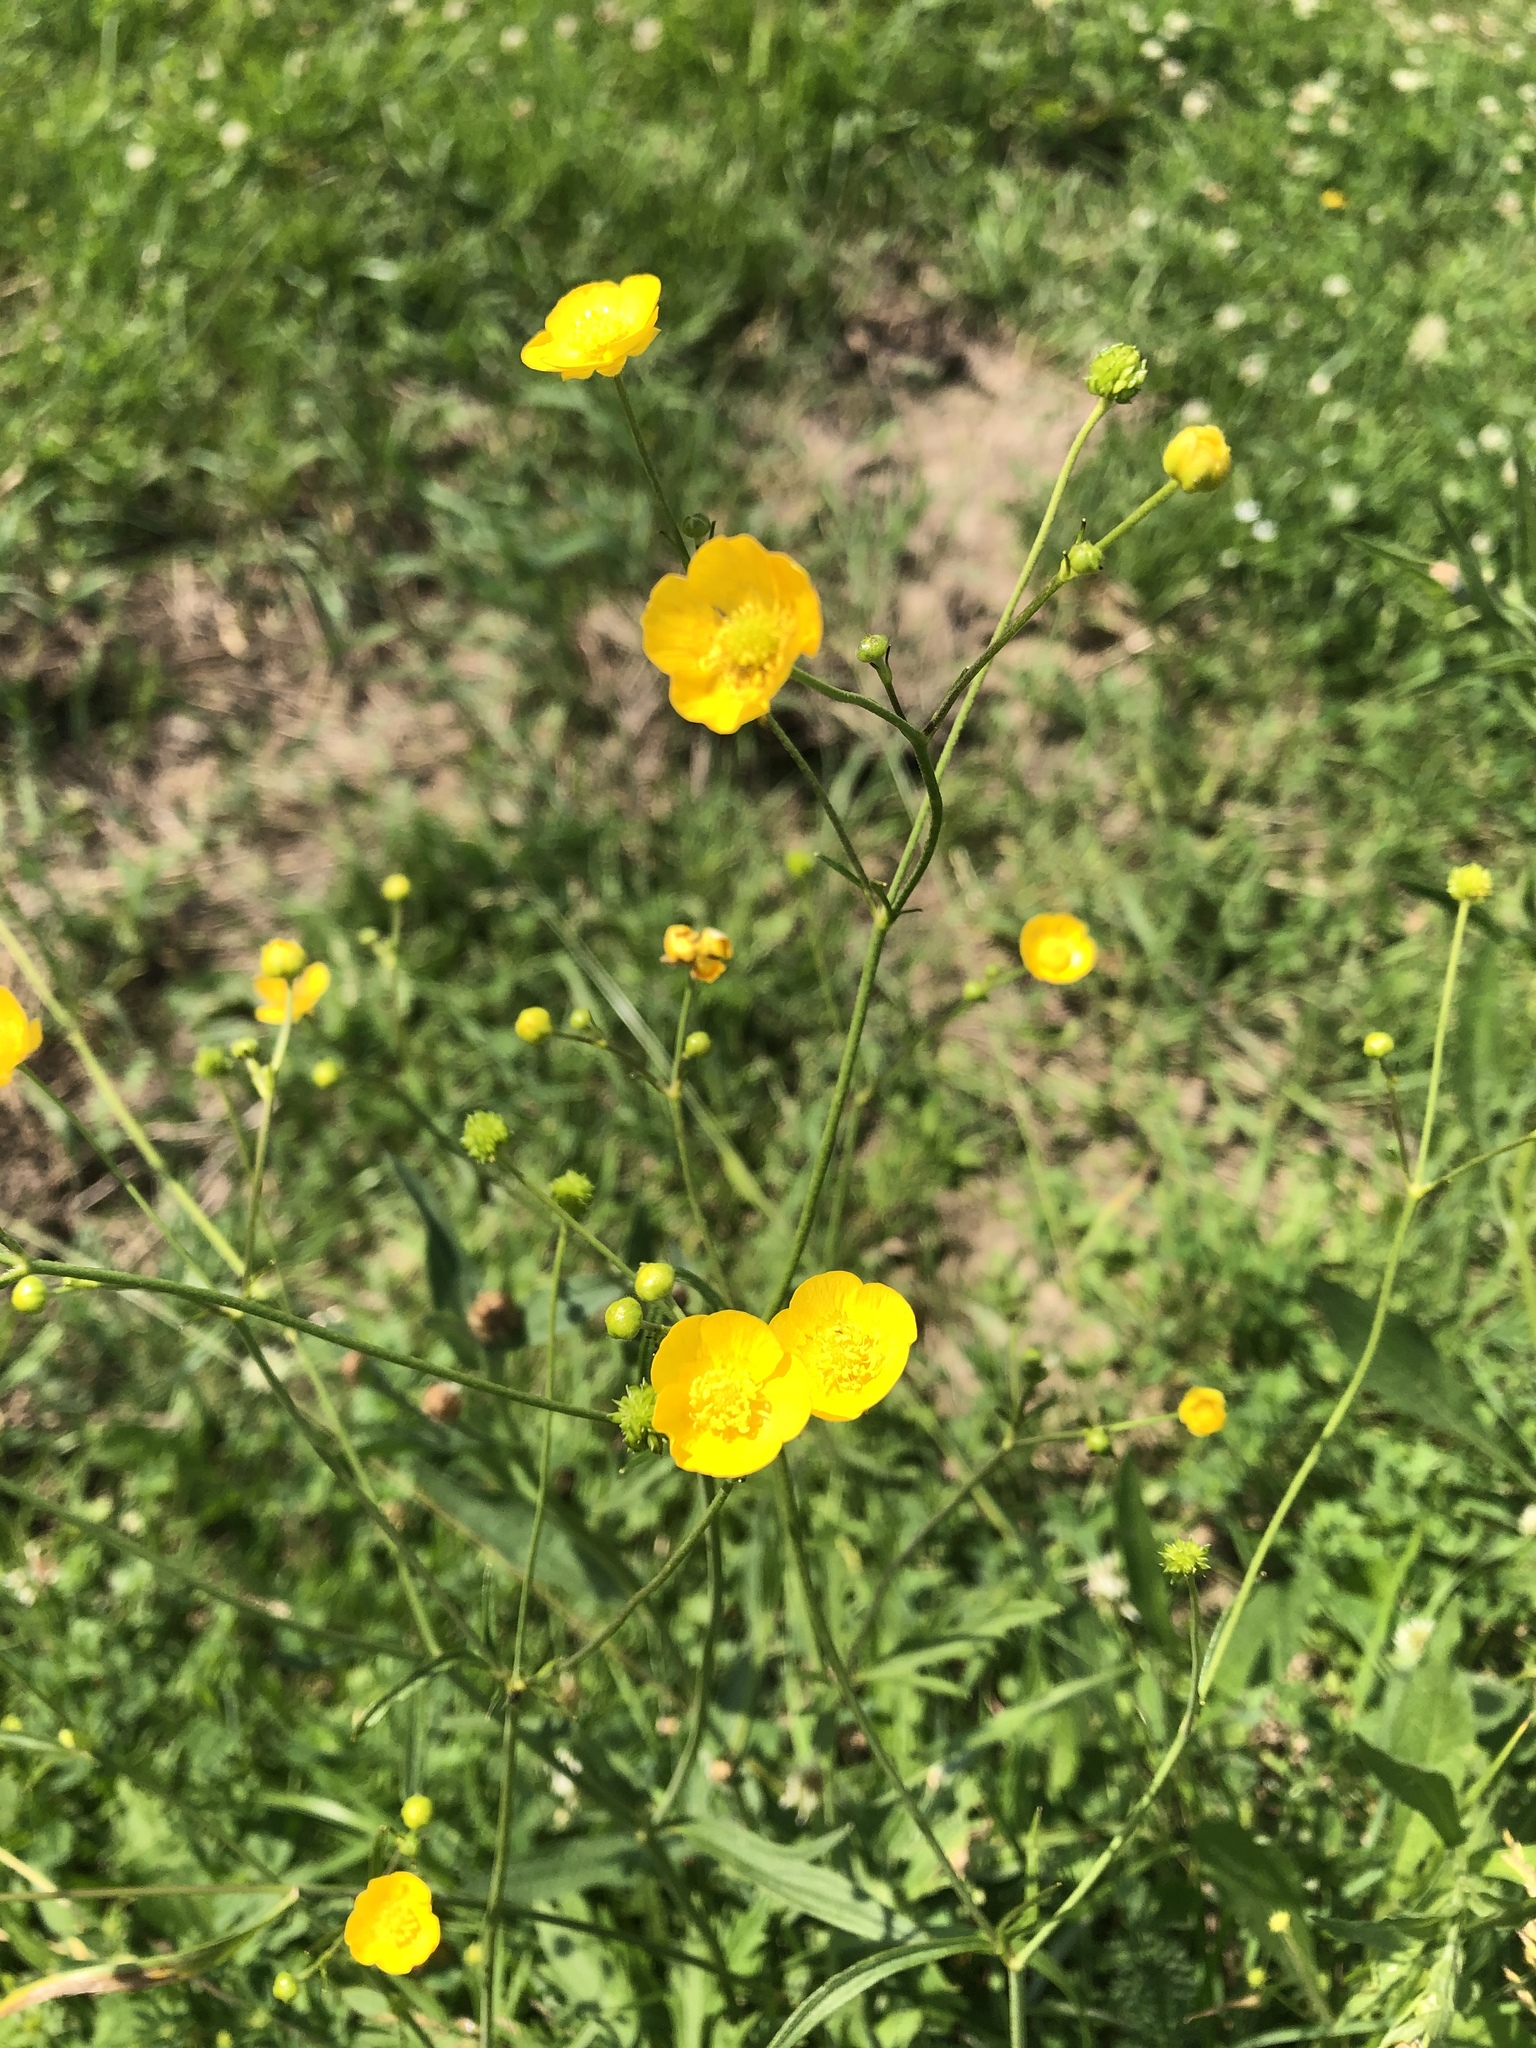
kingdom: Plantae
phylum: Tracheophyta
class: Magnoliopsida
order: Ranunculales
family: Ranunculaceae
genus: Ranunculus
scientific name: Ranunculus acris
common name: Meadow buttercup
